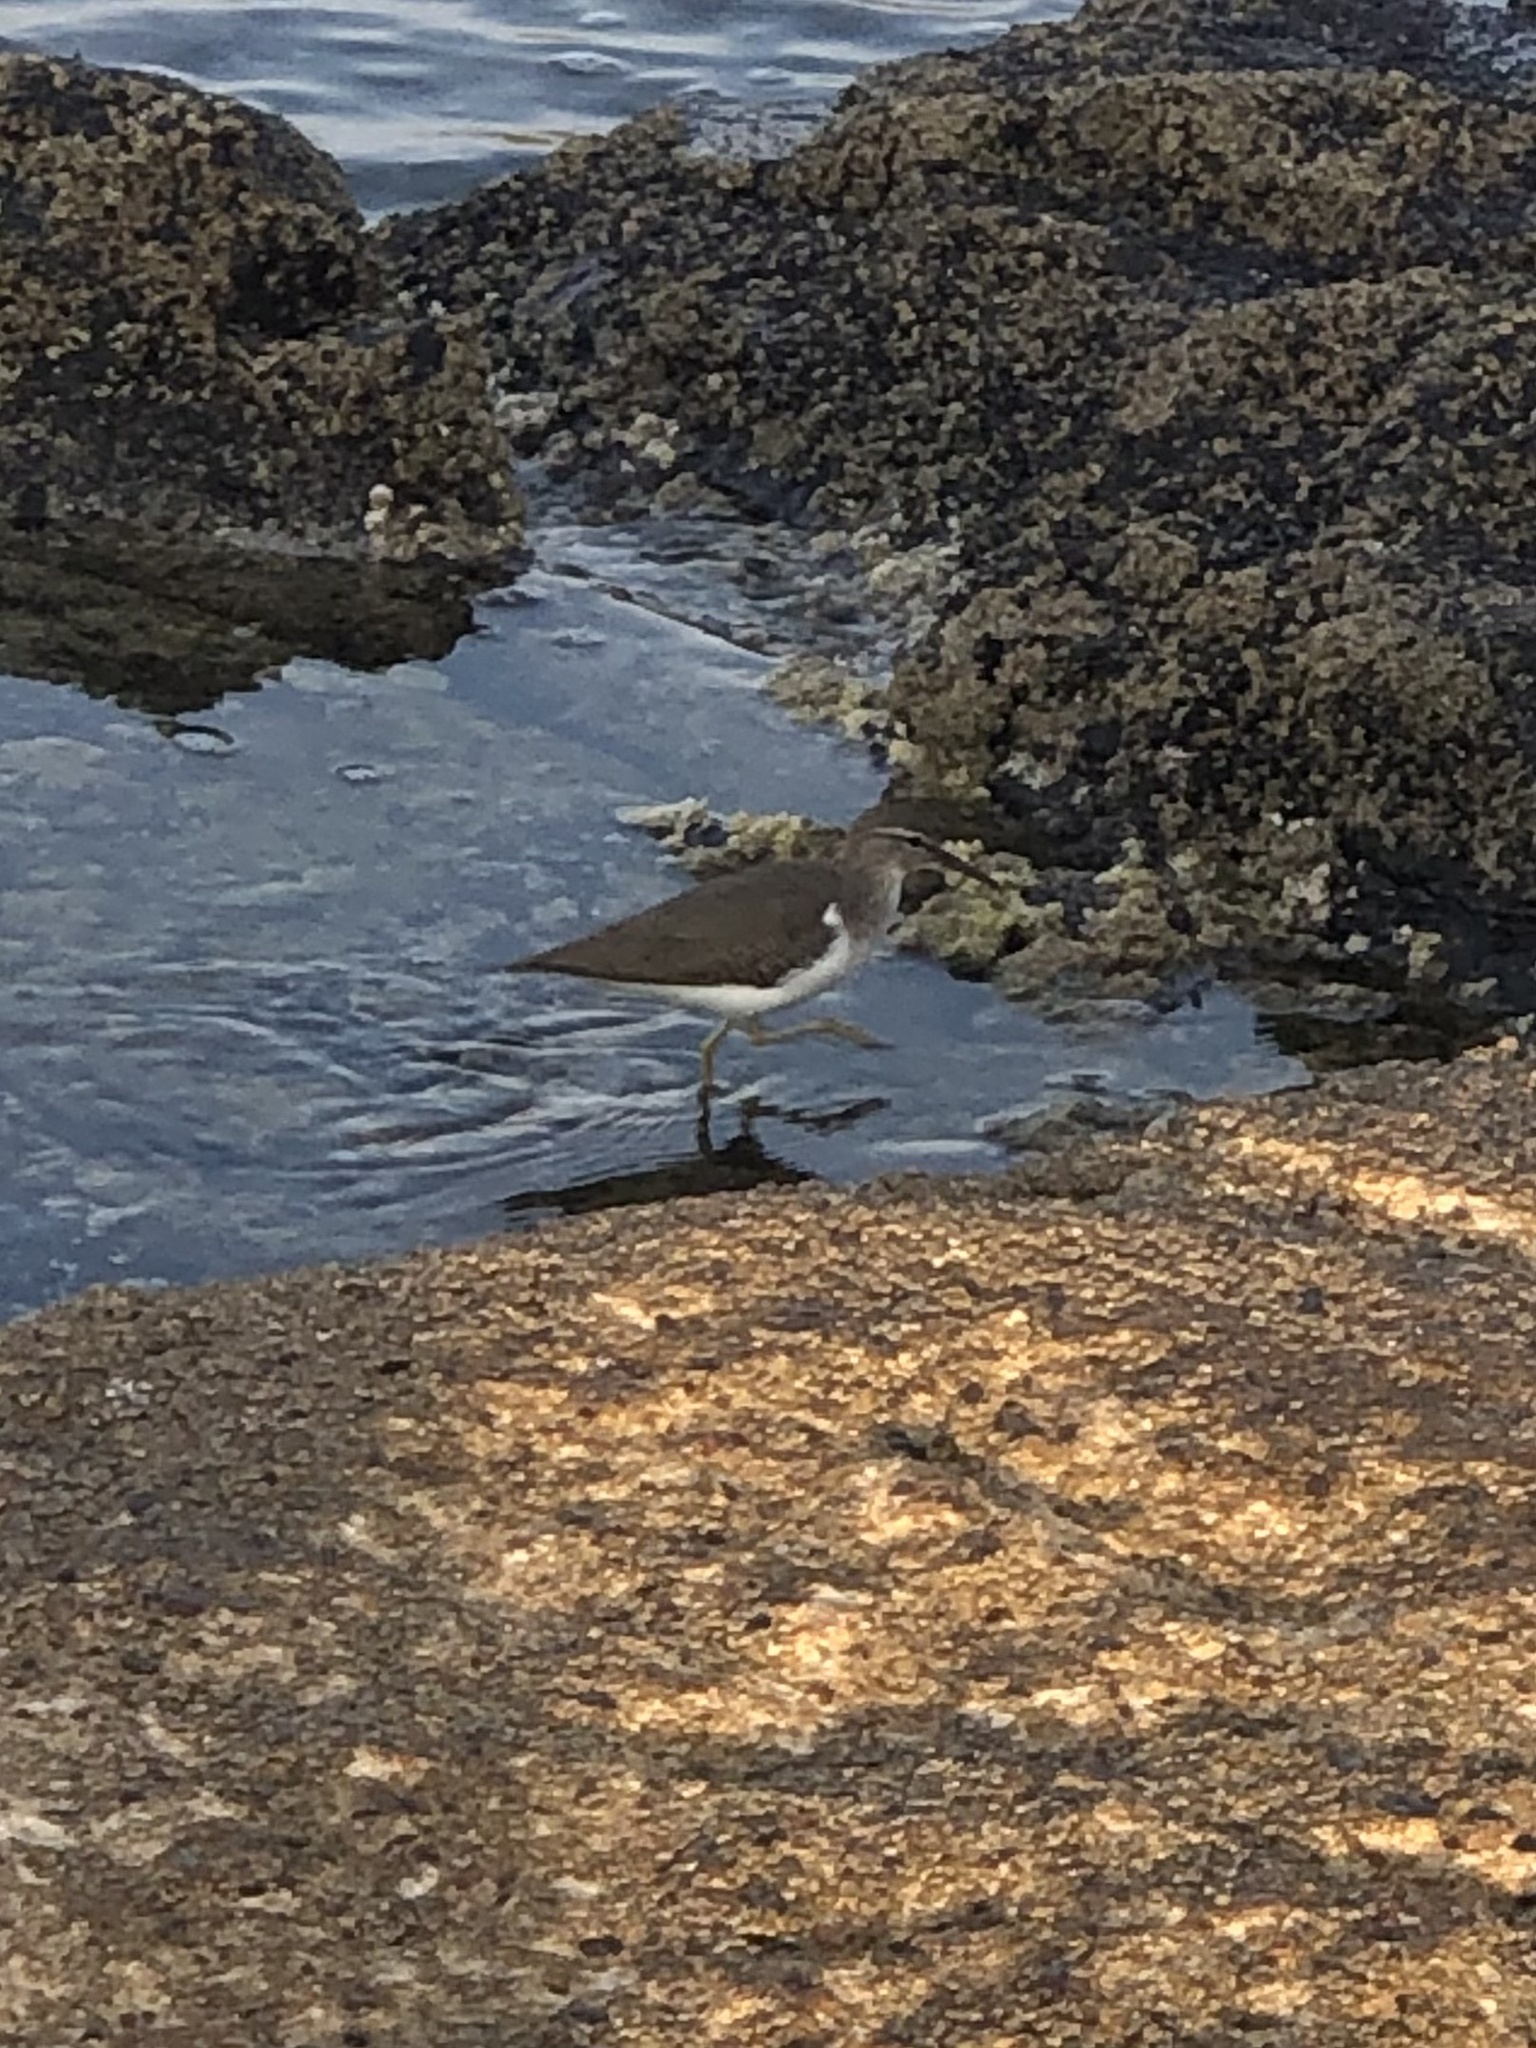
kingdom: Animalia
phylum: Chordata
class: Aves
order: Charadriiformes
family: Scolopacidae
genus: Actitis
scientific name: Actitis macularius
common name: Spotted sandpiper
